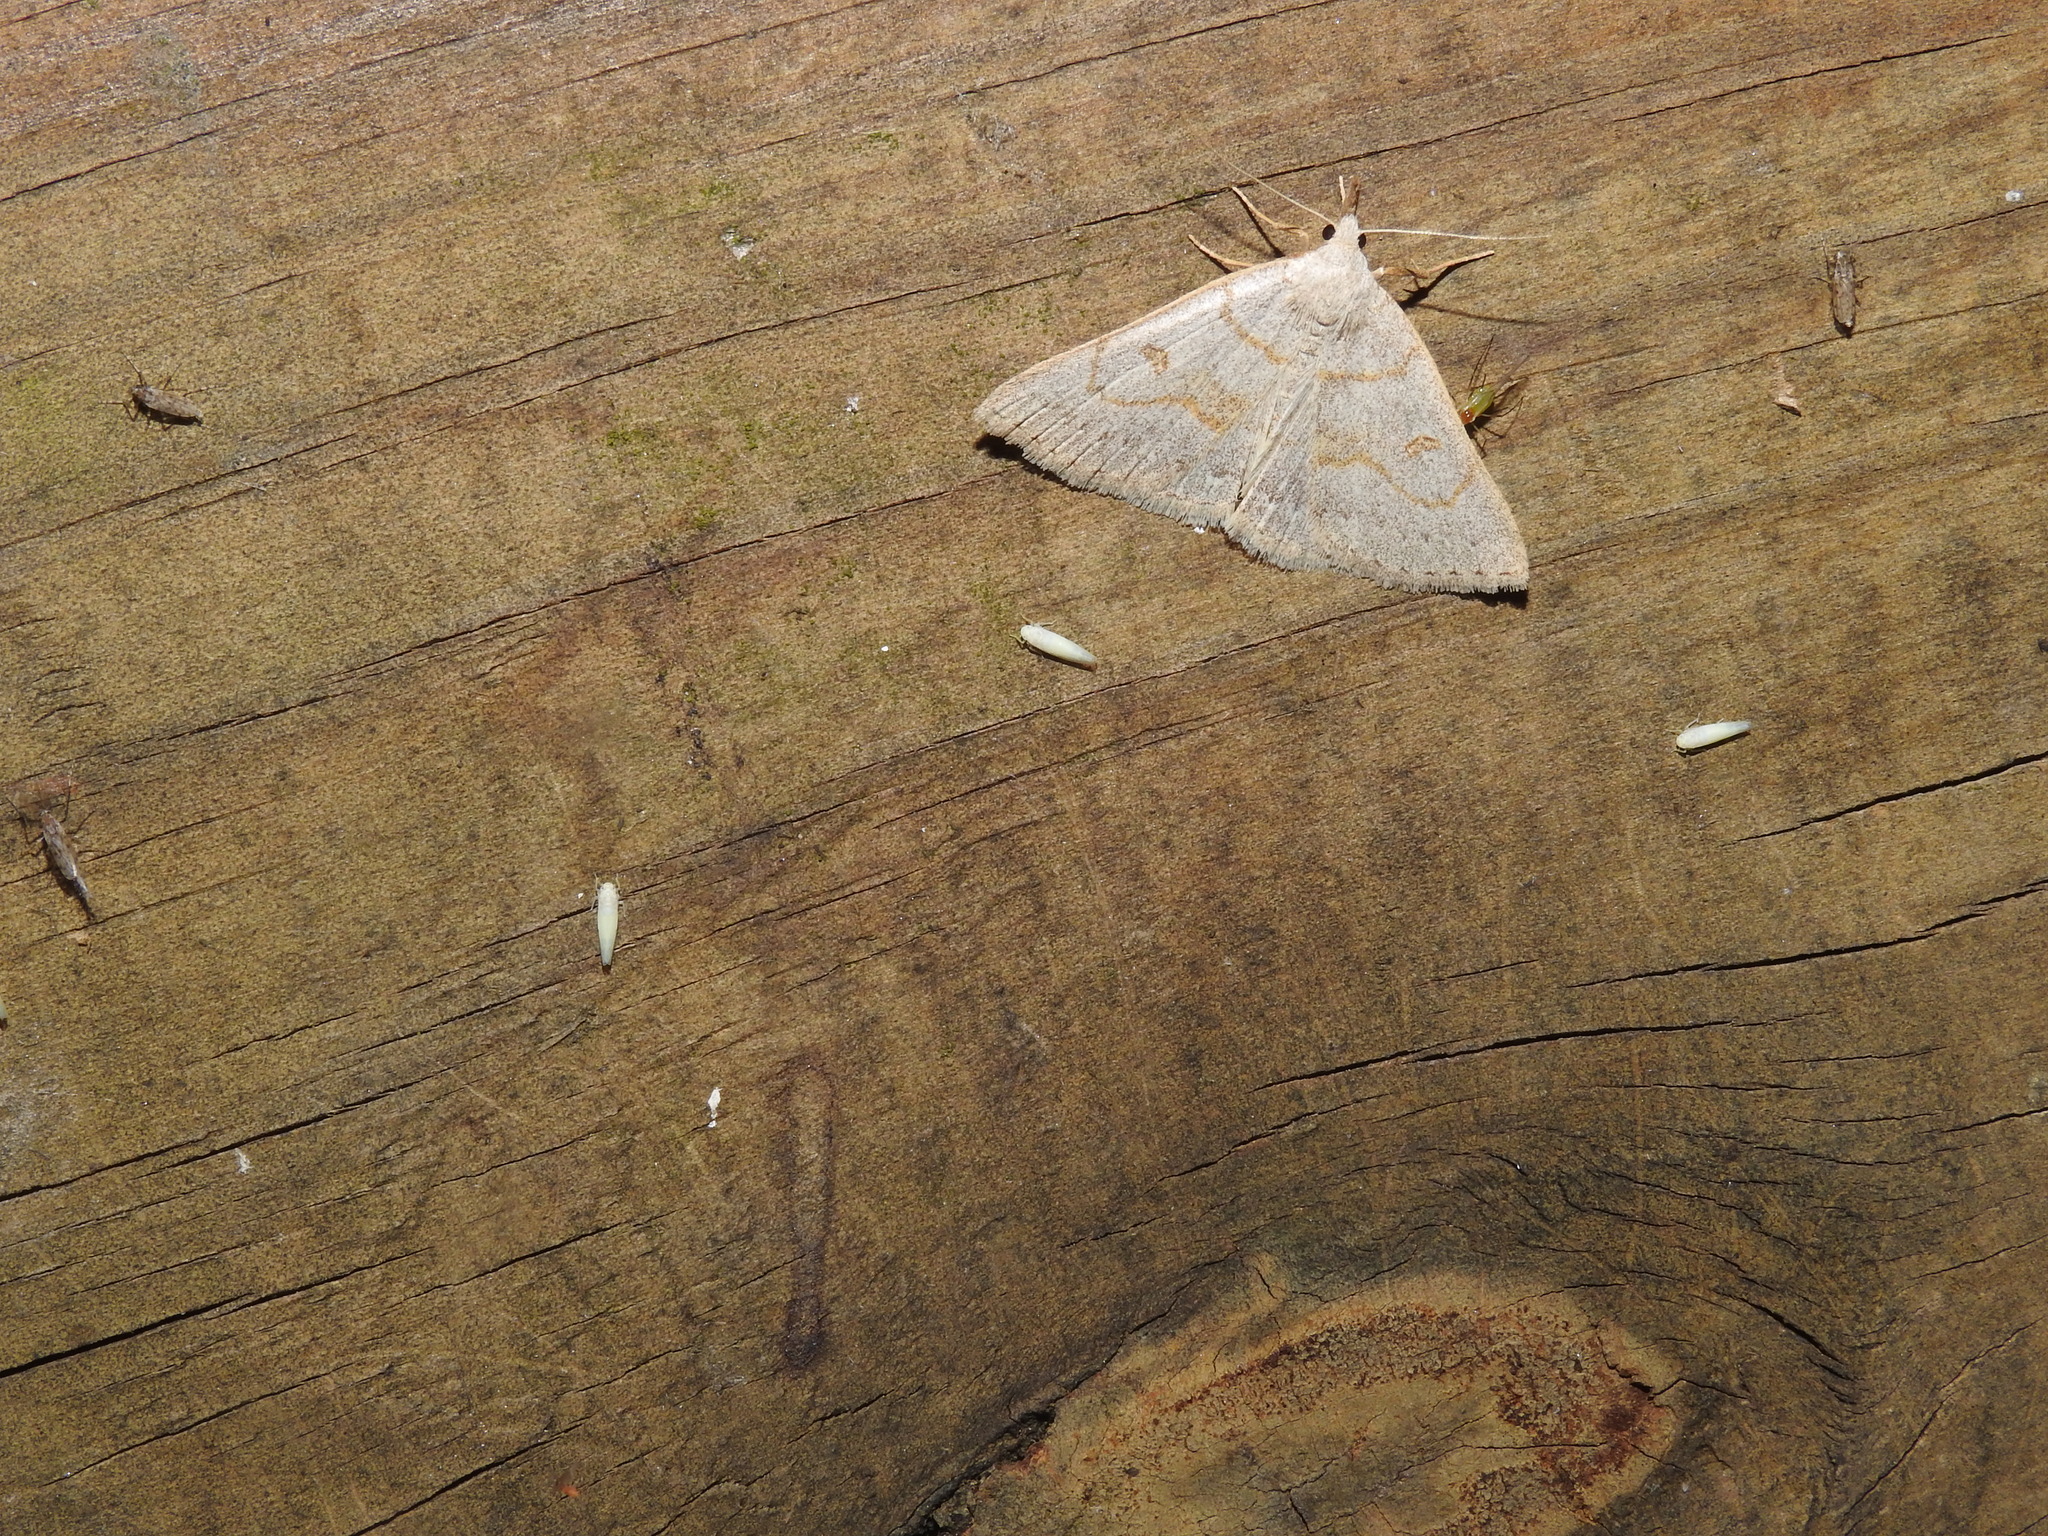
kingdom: Animalia
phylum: Arthropoda
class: Insecta
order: Lepidoptera
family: Erebidae
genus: Macrochilo
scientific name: Macrochilo morbidalis
